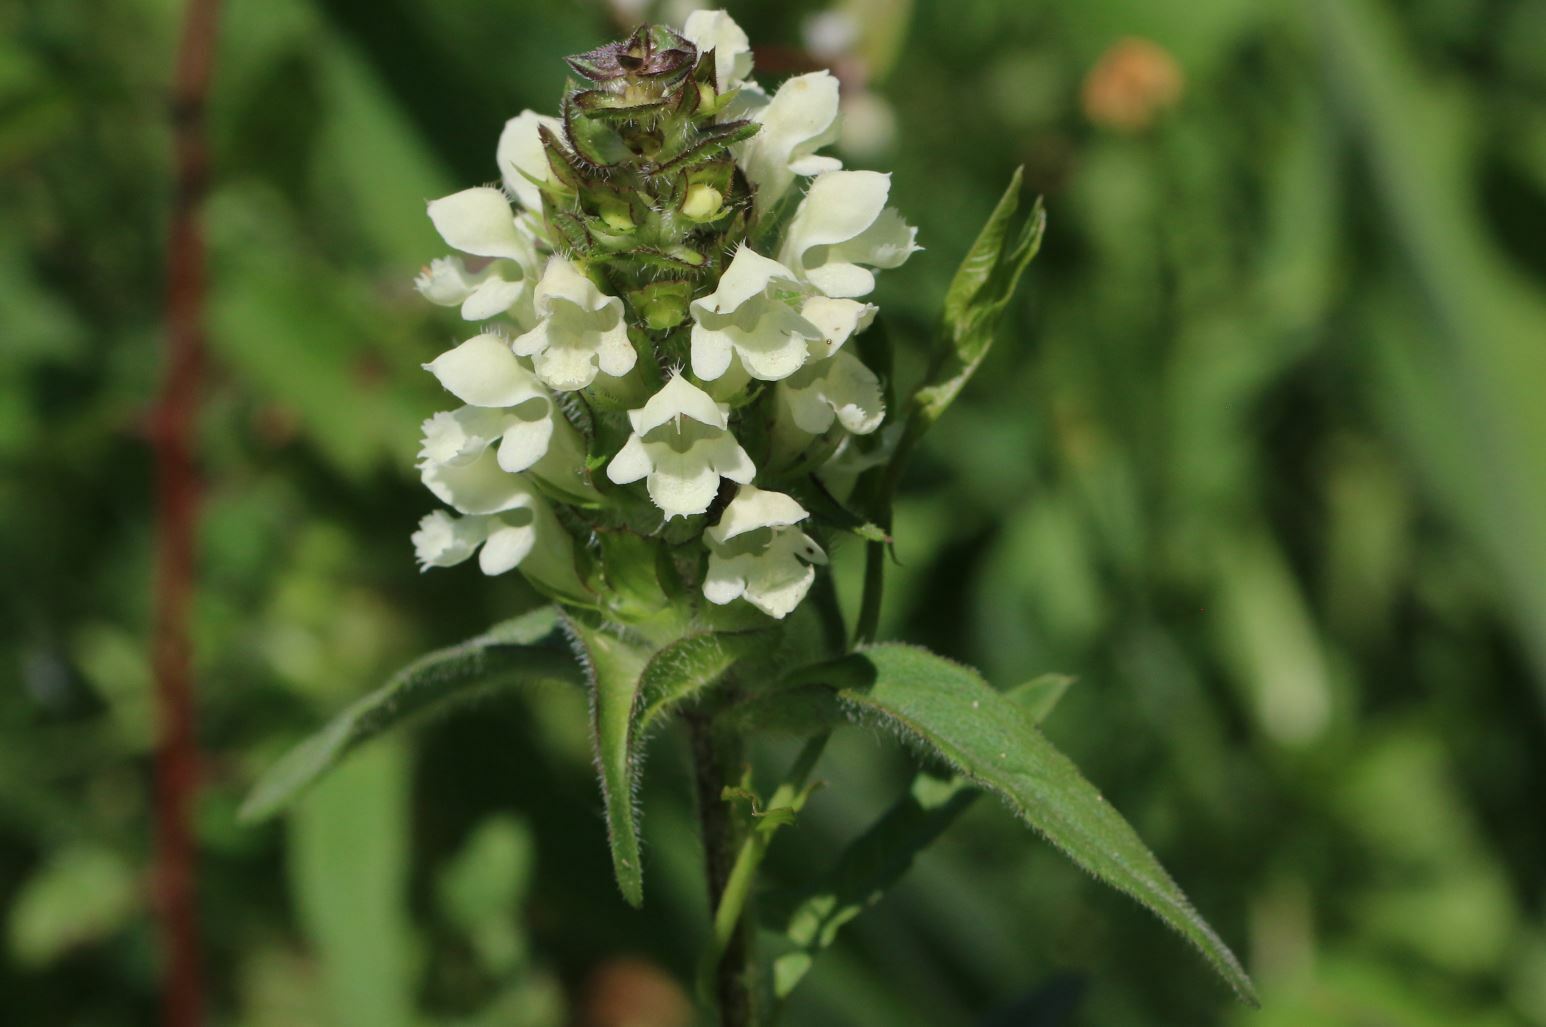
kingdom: Plantae
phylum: Tracheophyta
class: Magnoliopsida
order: Lamiales
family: Lamiaceae
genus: Prunella
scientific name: Prunella laciniata
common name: Cut-leaved selfheal
